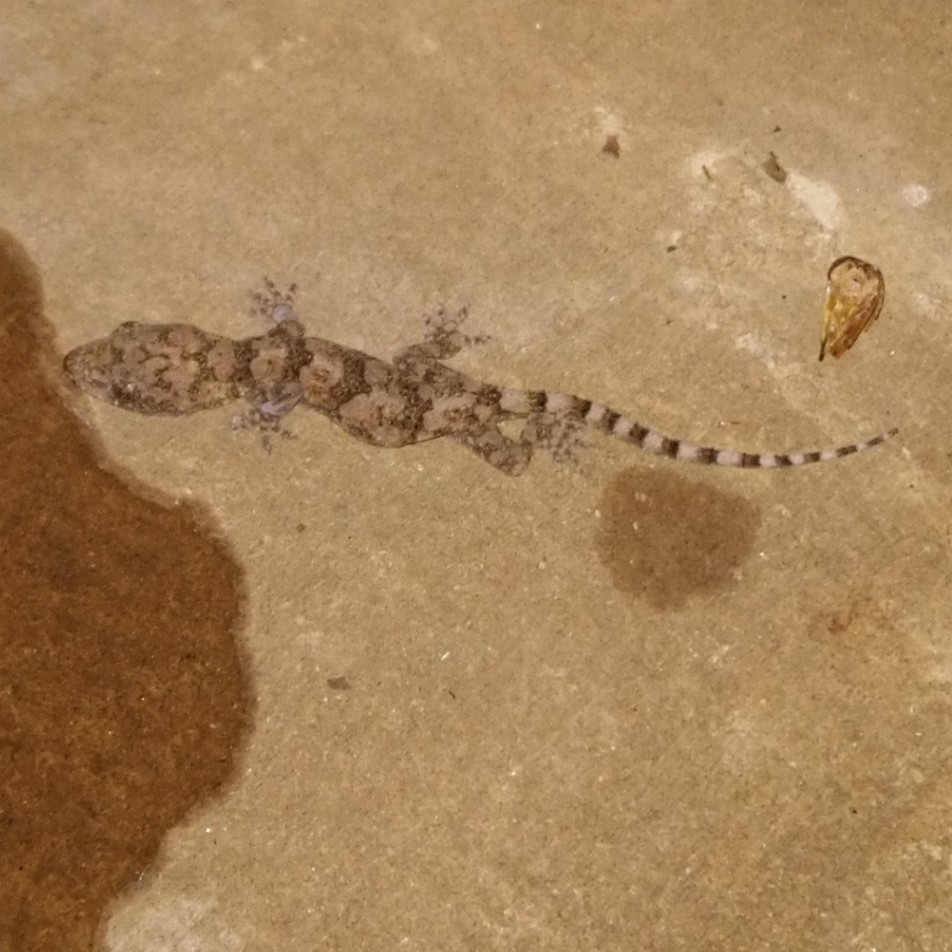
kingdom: Animalia
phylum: Chordata
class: Squamata
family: Gekkonidae
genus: Hemidactylus
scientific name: Hemidactylus mabouia
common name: House gecko
